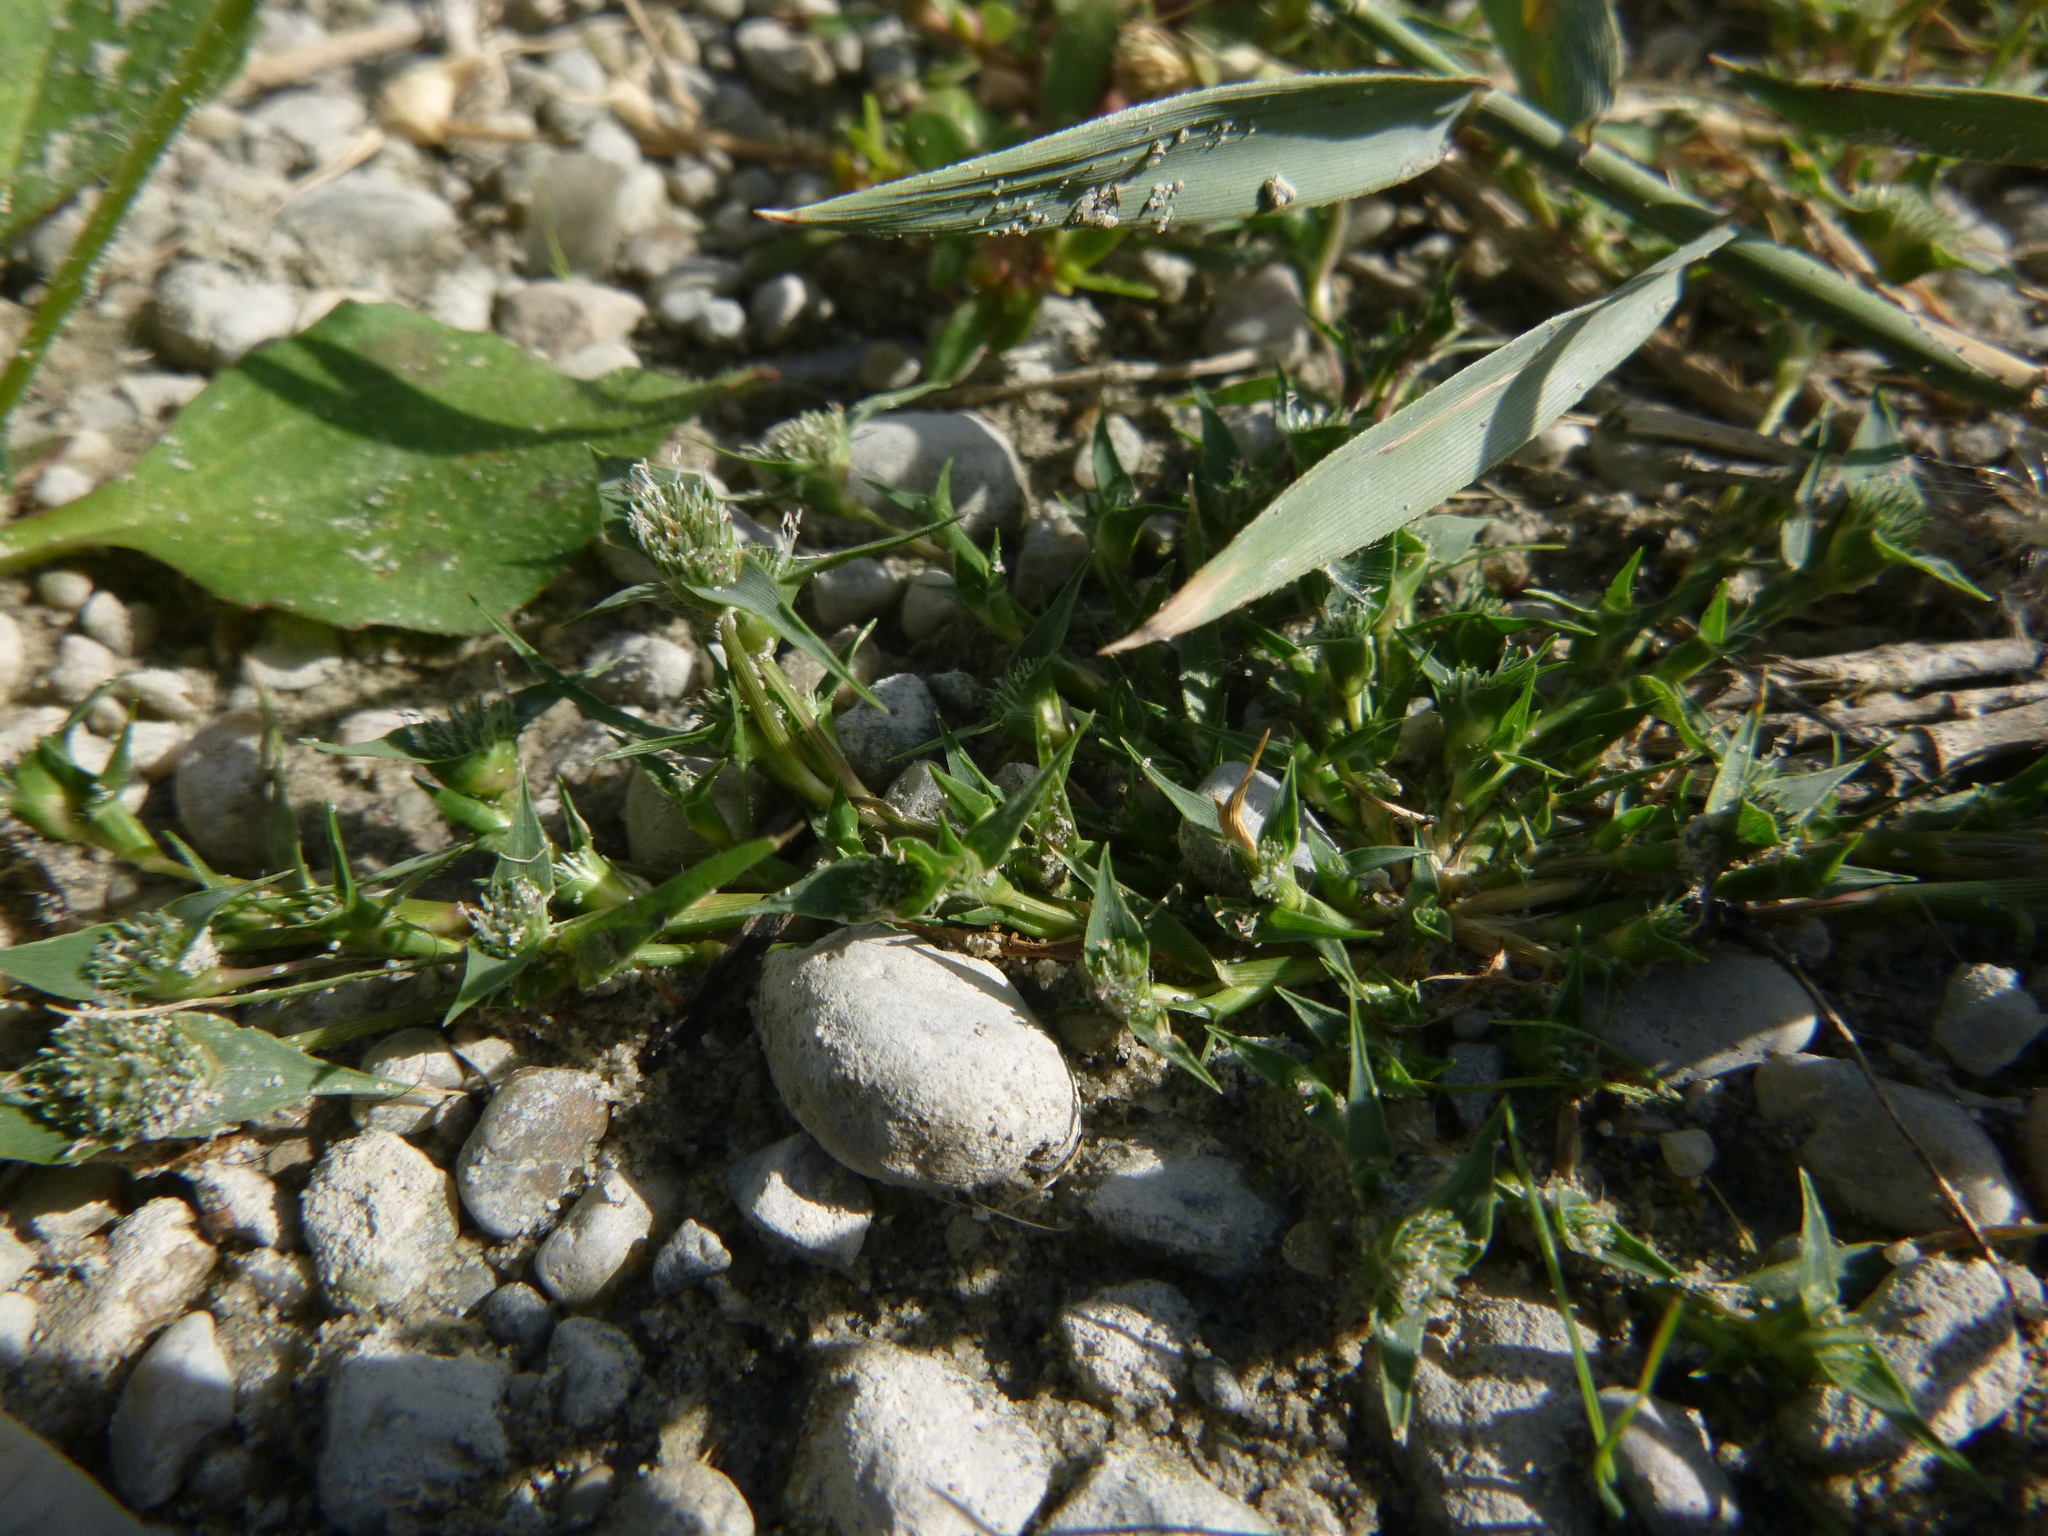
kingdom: Plantae
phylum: Tracheophyta
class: Liliopsida
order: Poales
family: Poaceae
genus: Sporobolus
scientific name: Sporobolus aculeatus
